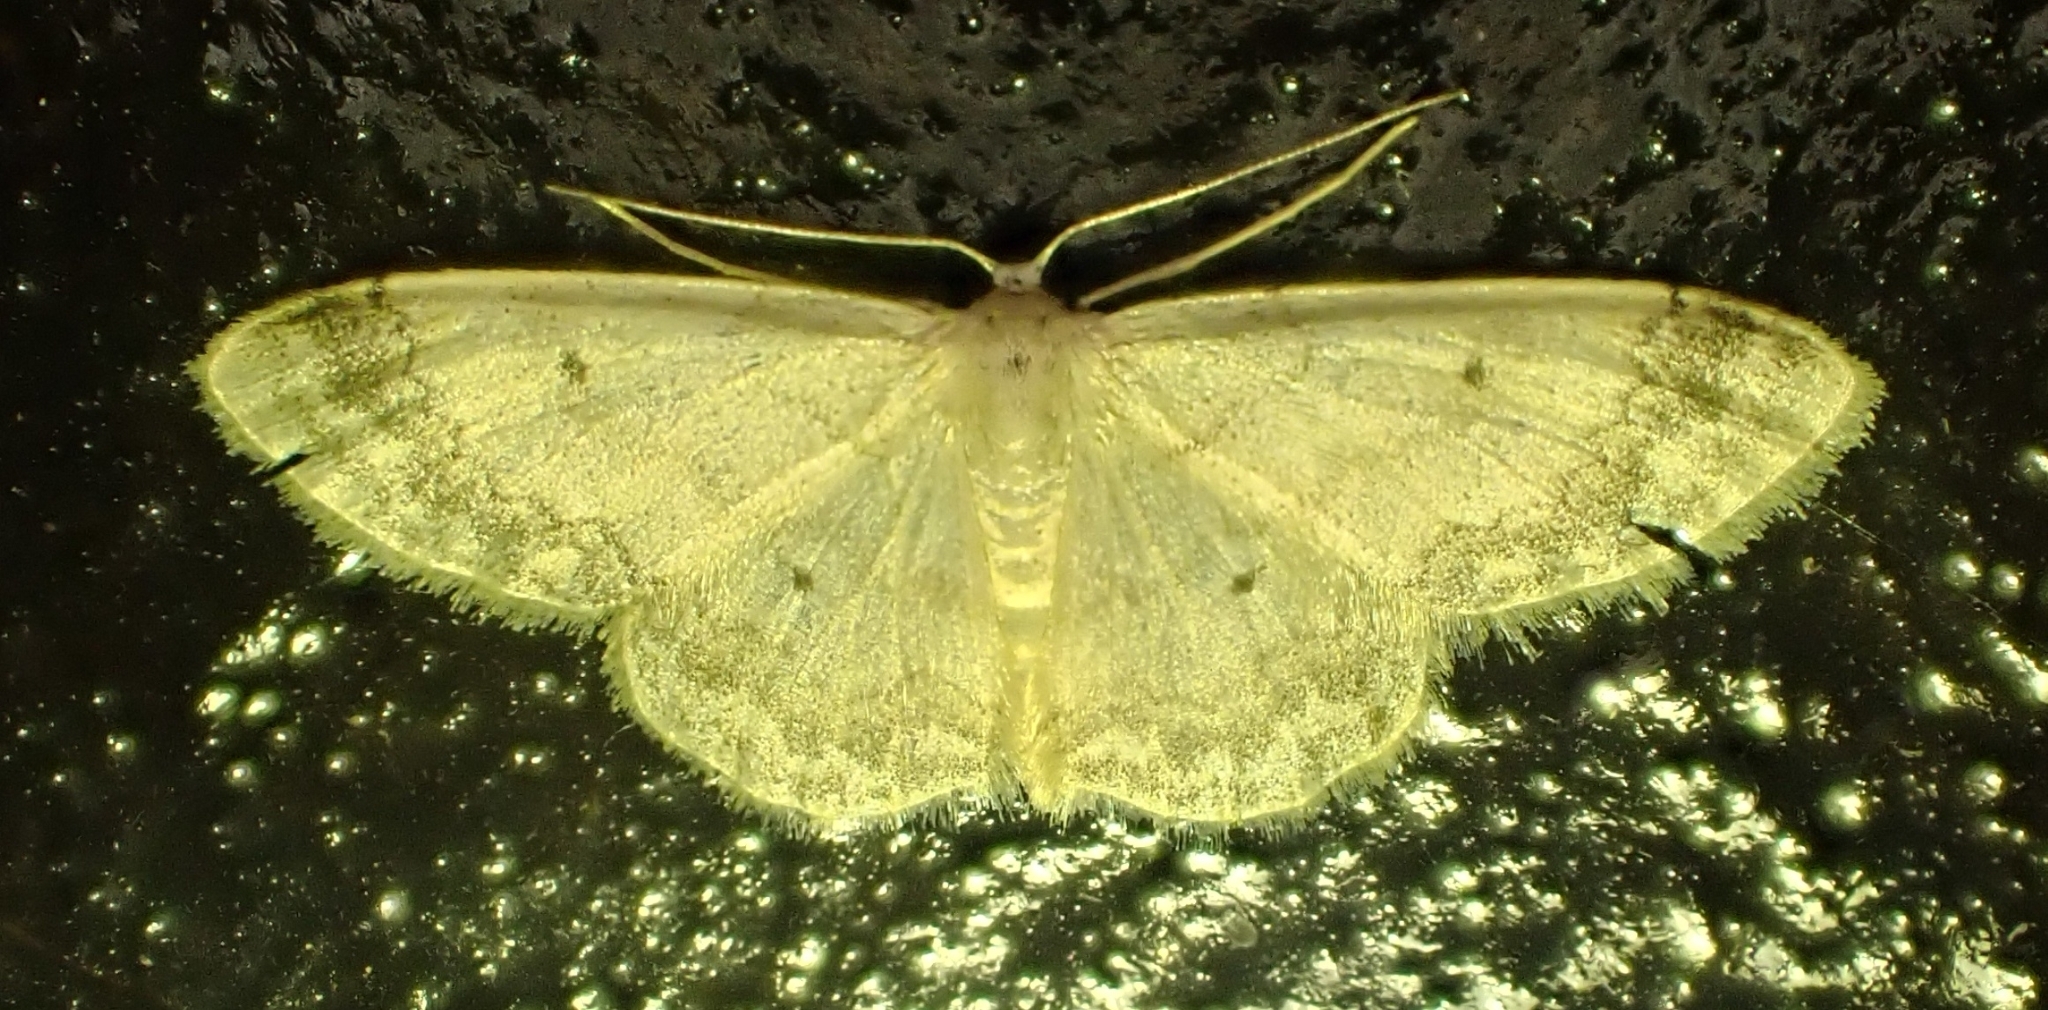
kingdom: Animalia
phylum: Arthropoda
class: Insecta
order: Lepidoptera
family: Geometridae
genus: Idaea
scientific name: Idaea biselata
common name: Small fan-footed wave
